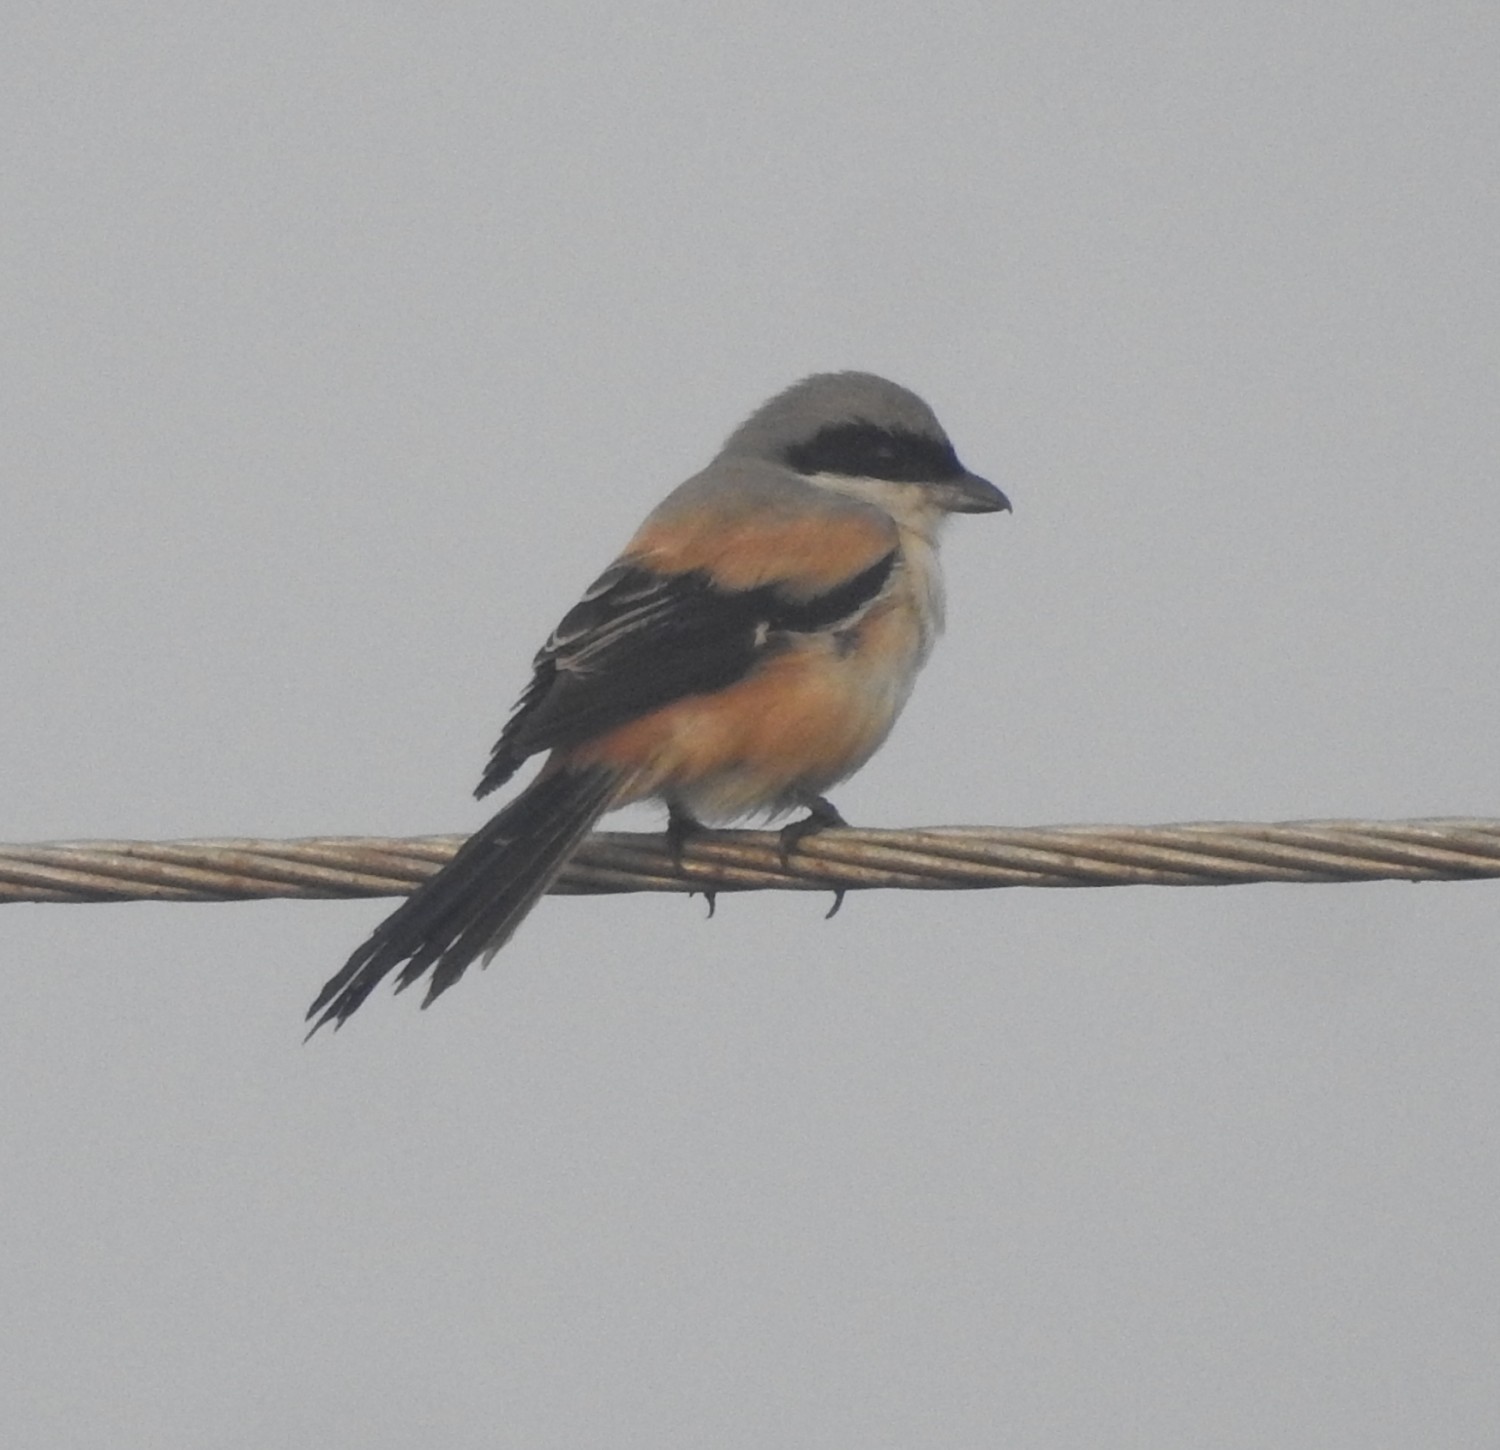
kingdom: Animalia
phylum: Chordata
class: Aves
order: Passeriformes
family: Laniidae
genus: Lanius
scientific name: Lanius schach
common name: Long-tailed shrike
